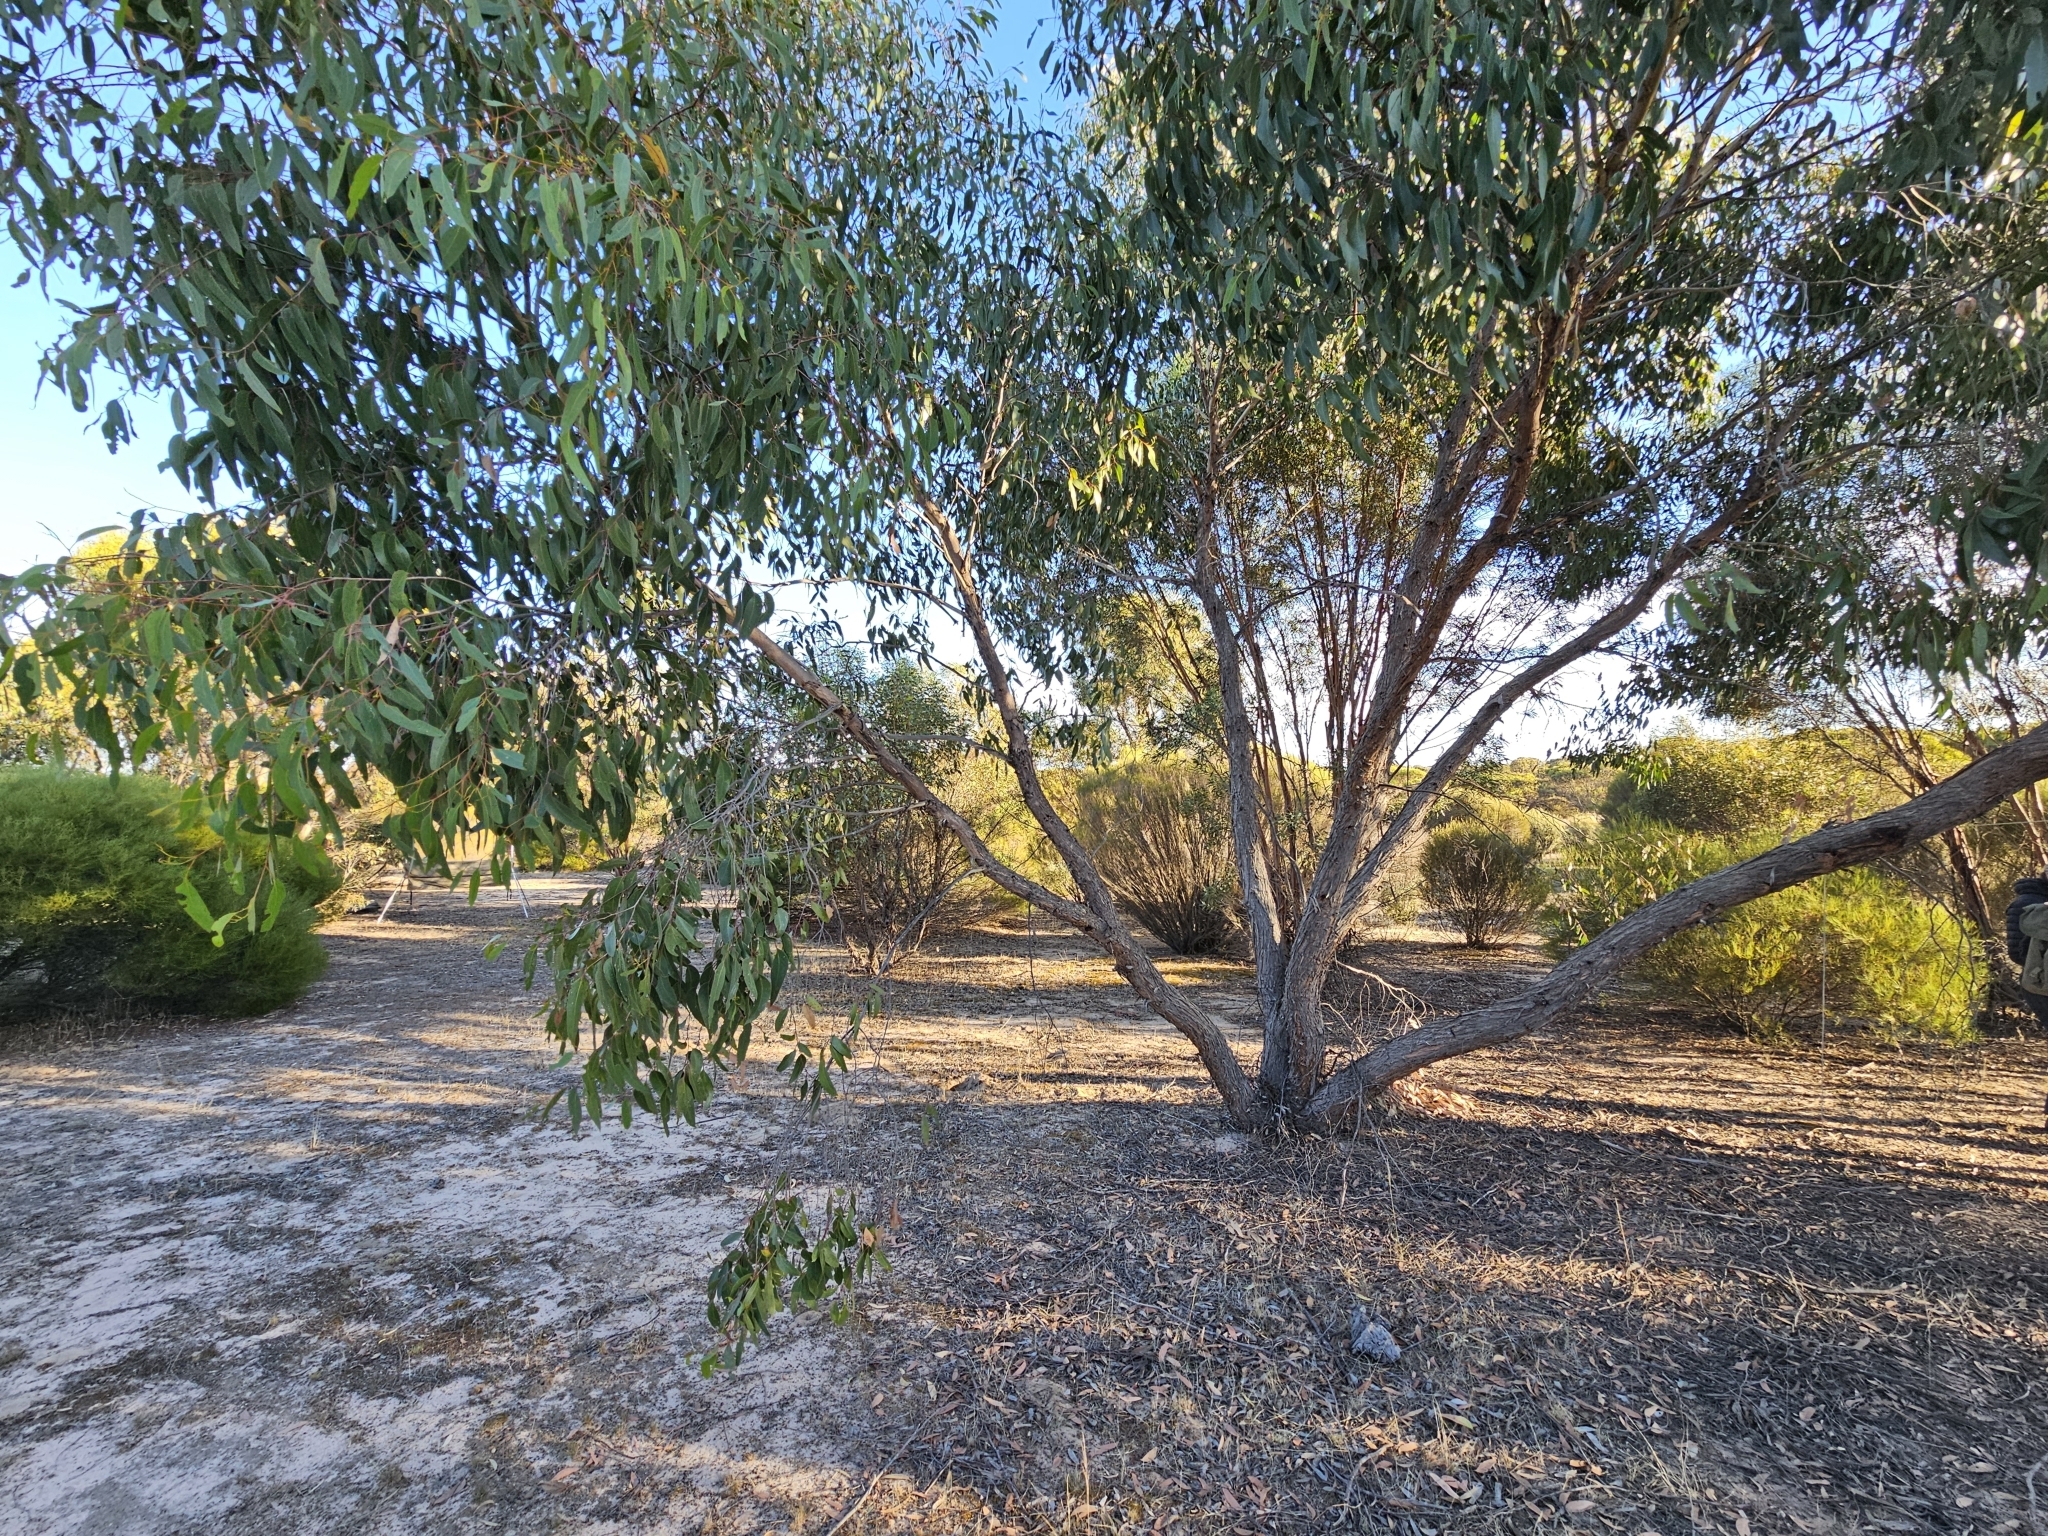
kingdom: Plantae
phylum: Tracheophyta
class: Magnoliopsida
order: Myrtales
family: Myrtaceae
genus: Eucalyptus
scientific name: Eucalyptus arenacea
